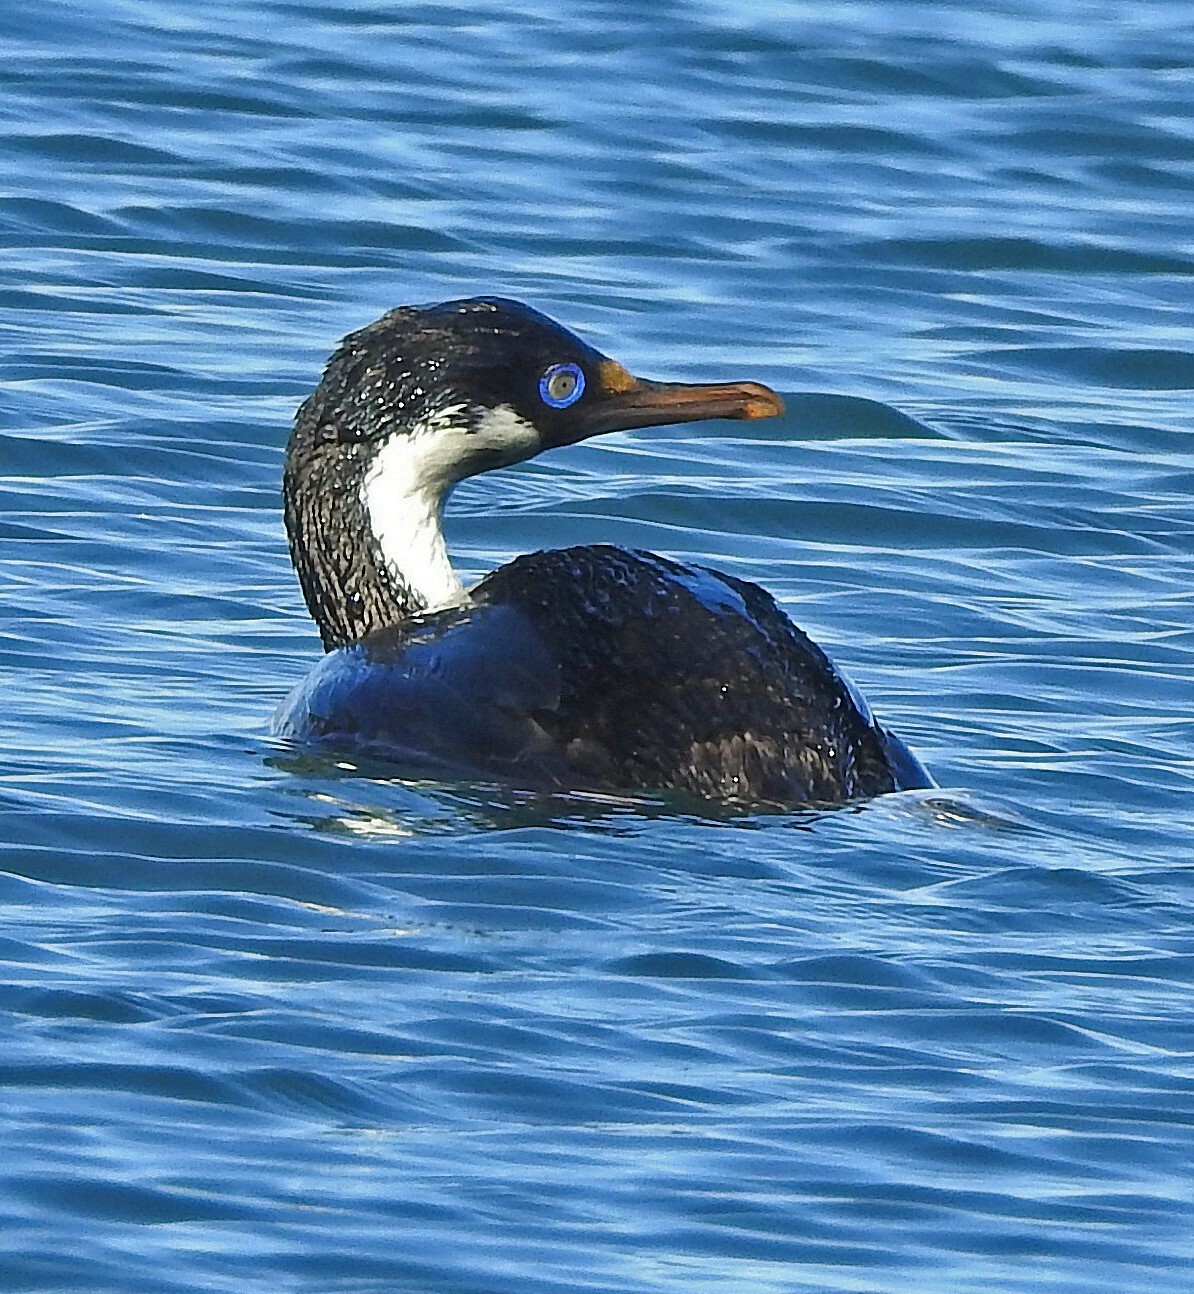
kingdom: Animalia
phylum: Chordata
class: Aves
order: Suliformes
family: Phalacrocoracidae
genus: Leucocarbo
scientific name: Leucocarbo atriceps
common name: Imperial shag
